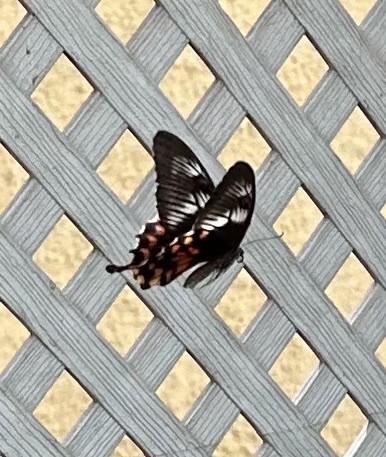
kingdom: Animalia
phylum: Arthropoda
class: Insecta
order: Lepidoptera
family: Papilionidae
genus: Papilio
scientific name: Papilio polytes
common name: Common mormon
